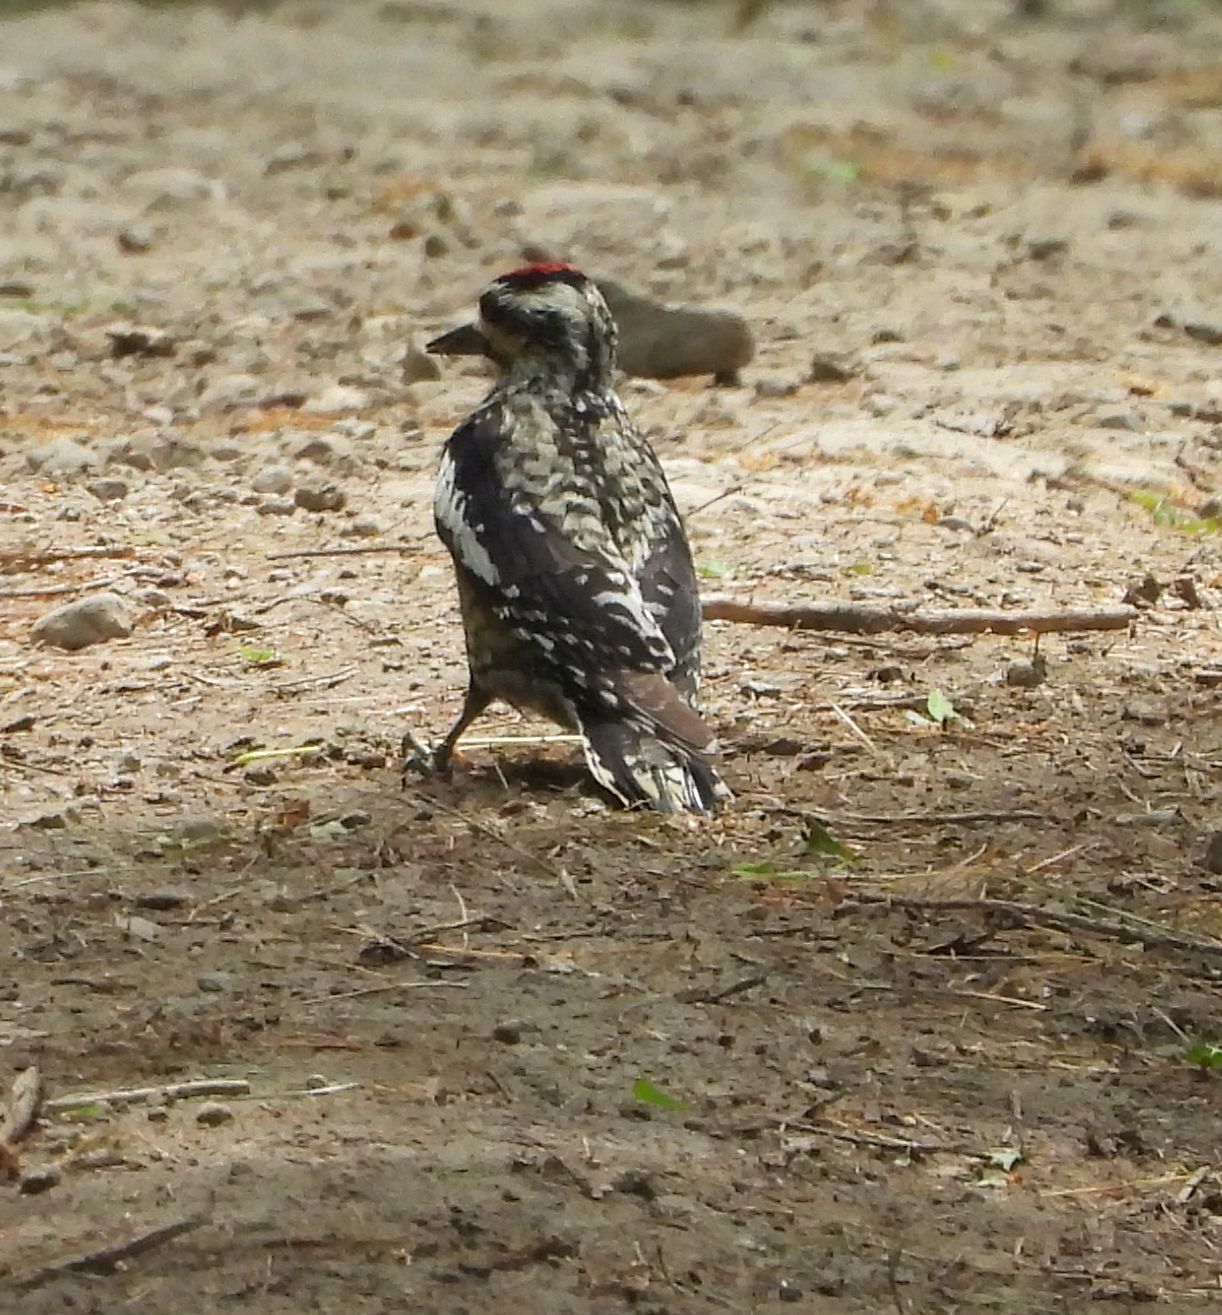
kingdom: Animalia
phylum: Chordata
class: Aves
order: Piciformes
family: Picidae
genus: Sphyrapicus
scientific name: Sphyrapicus varius
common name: Yellow-bellied sapsucker
